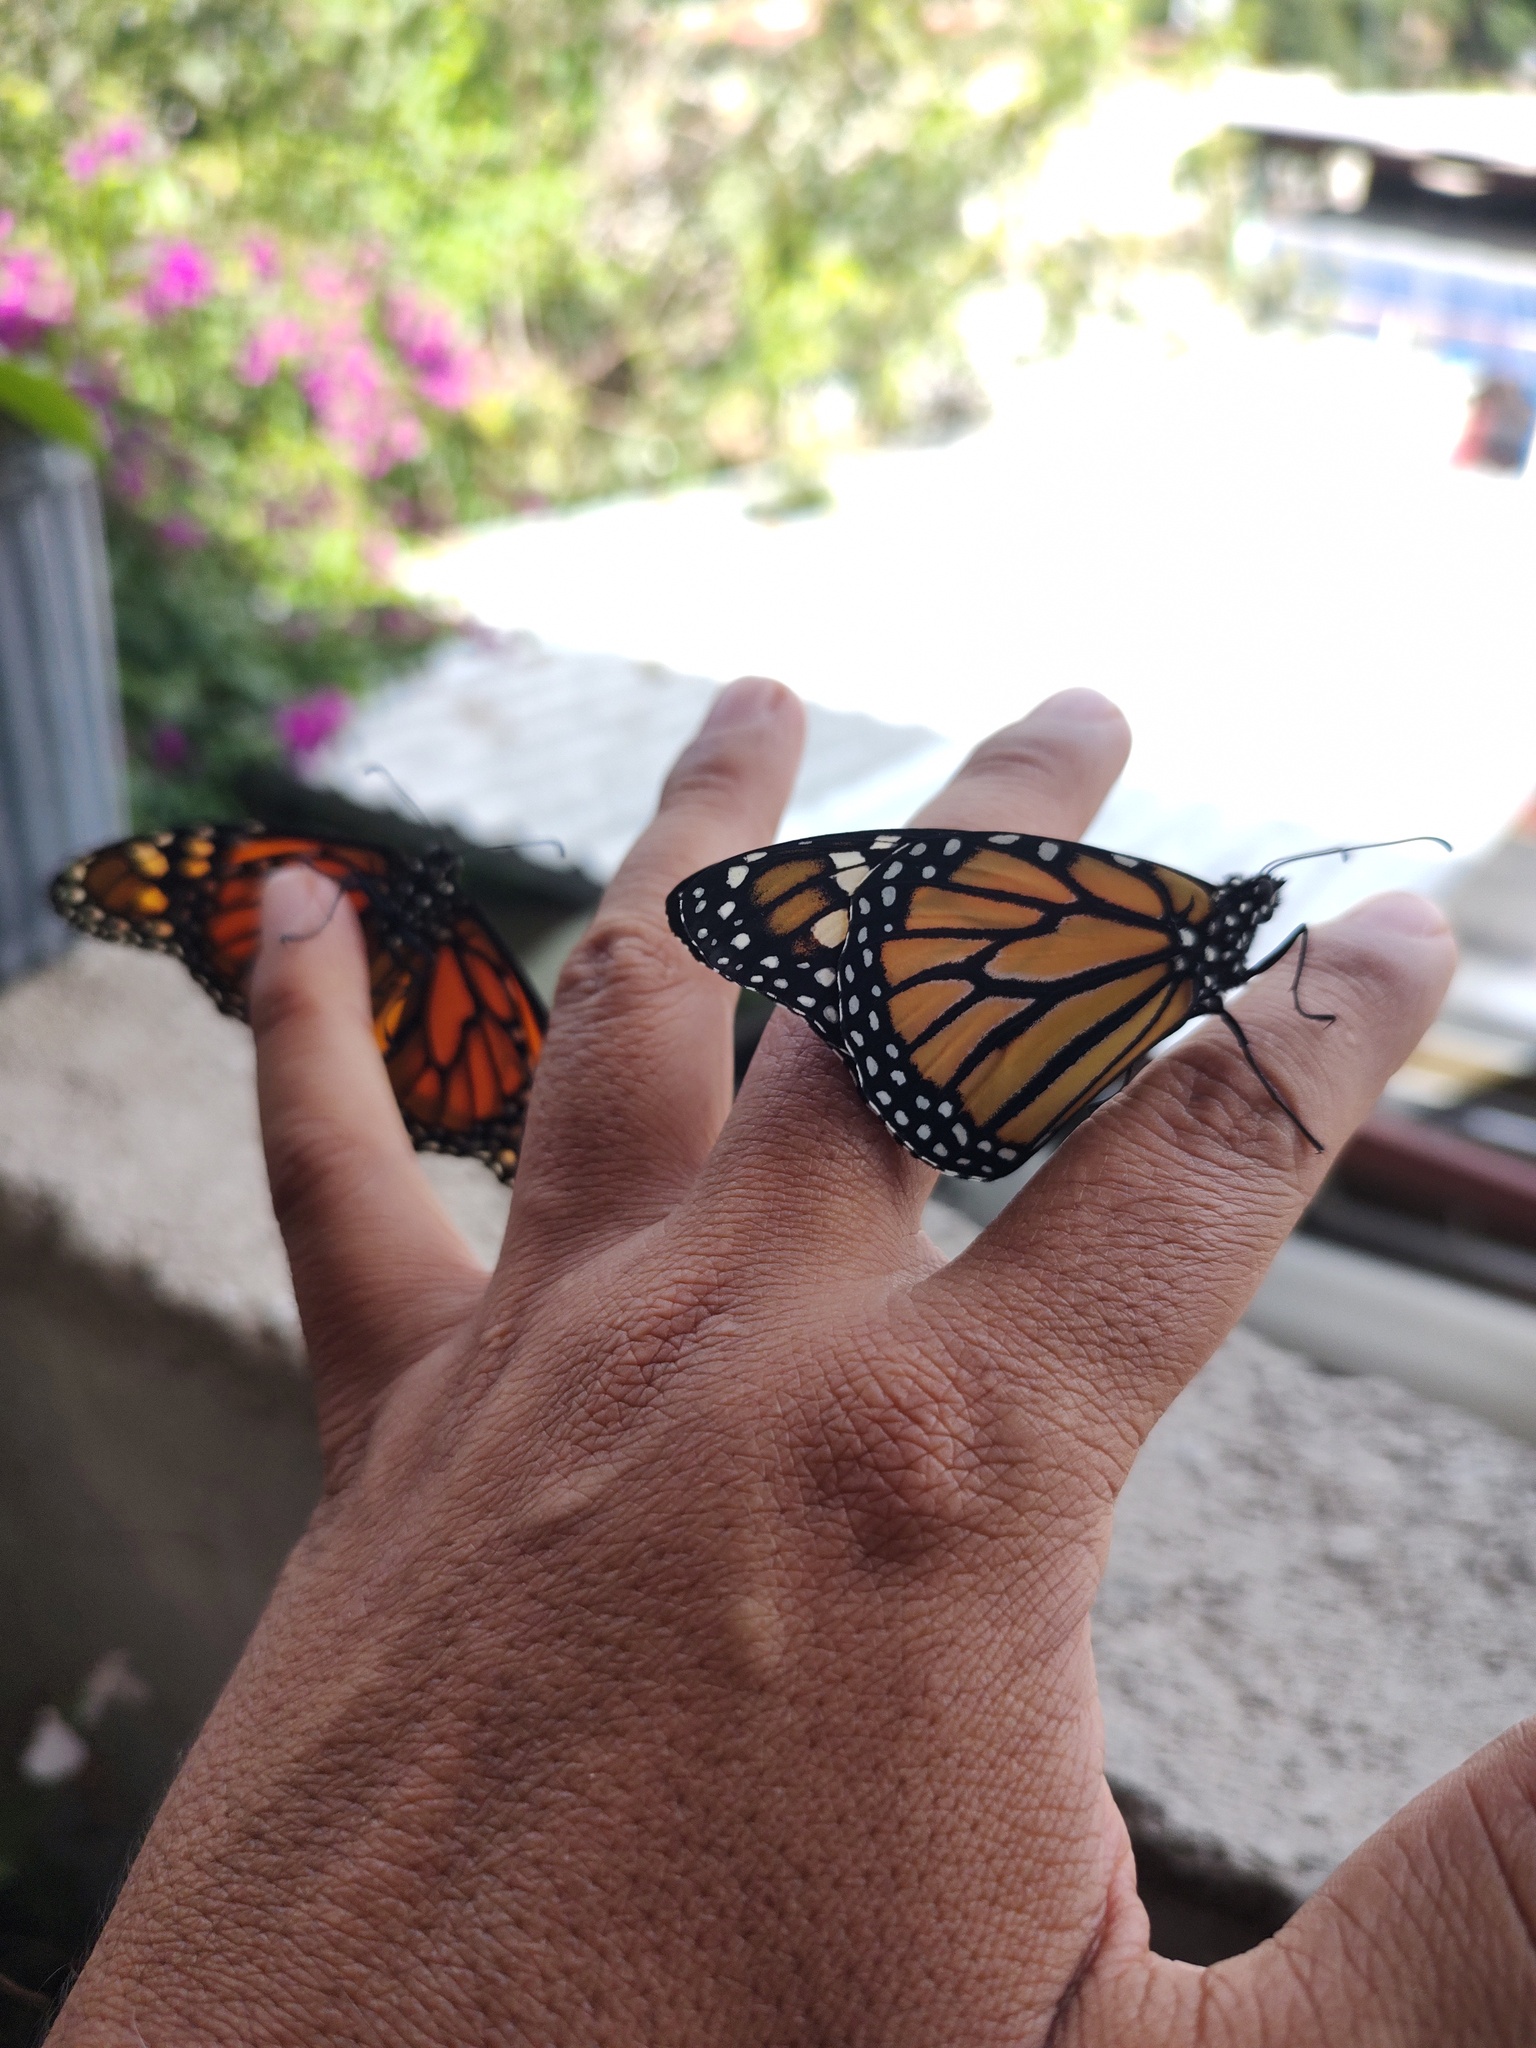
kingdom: Animalia
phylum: Arthropoda
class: Insecta
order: Lepidoptera
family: Nymphalidae
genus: Danaus
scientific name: Danaus plexippus
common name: Monarch
